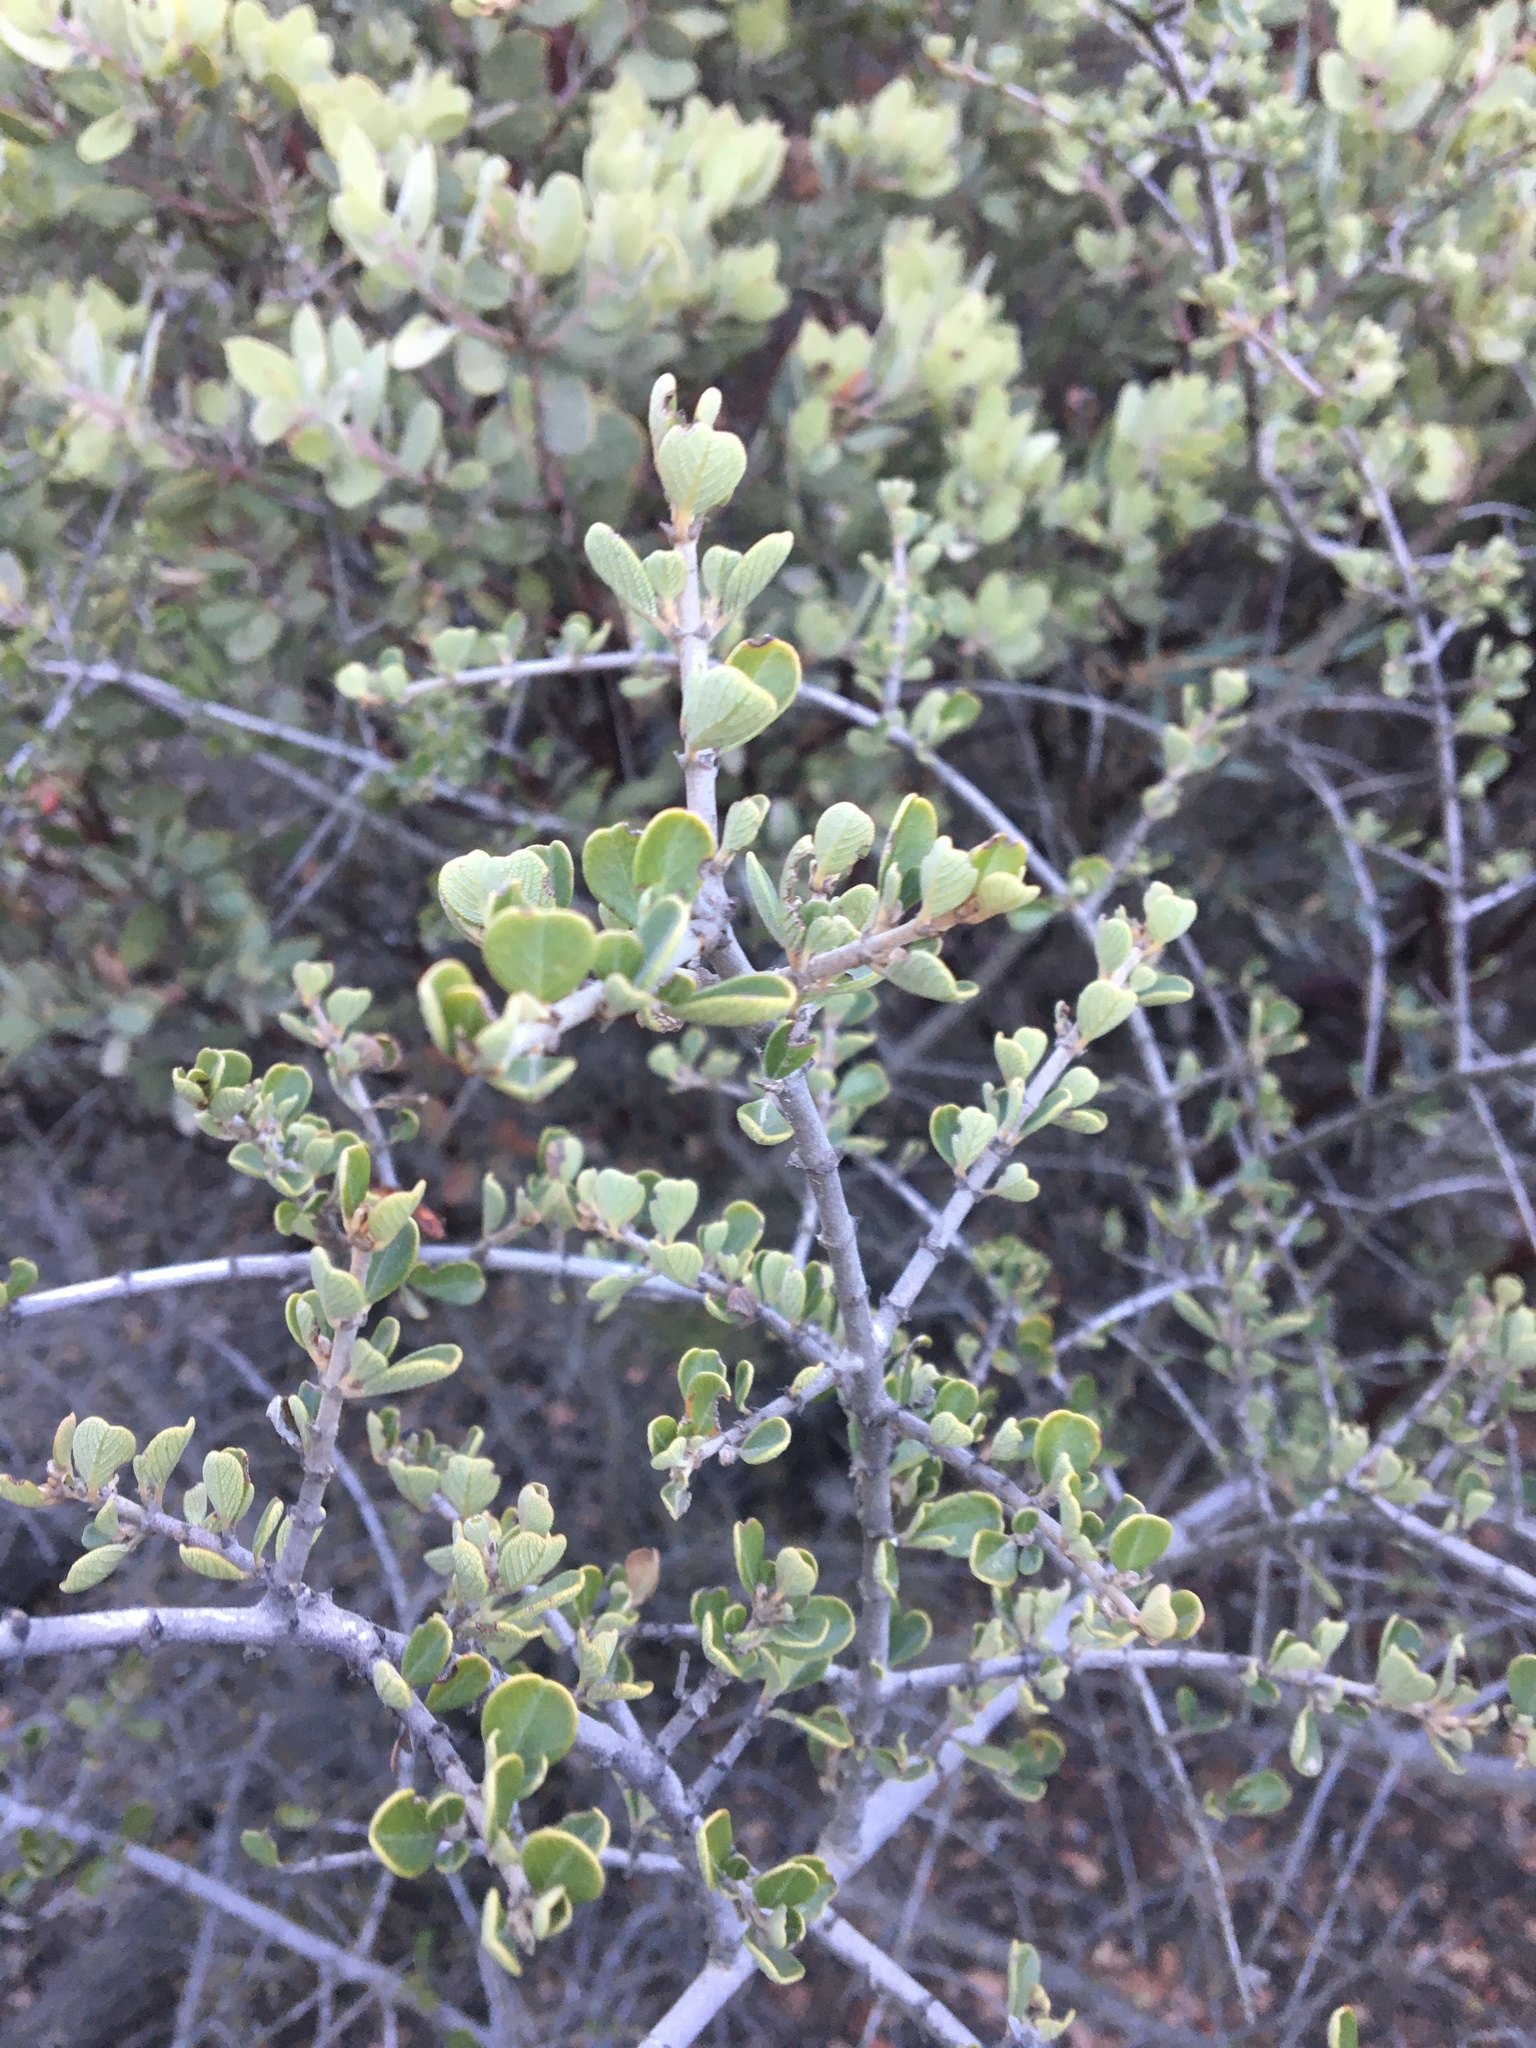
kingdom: Plantae
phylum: Tracheophyta
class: Magnoliopsida
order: Rosales
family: Rhamnaceae
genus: Ceanothus
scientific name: Ceanothus cuneatus
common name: Cuneate ceanothus
